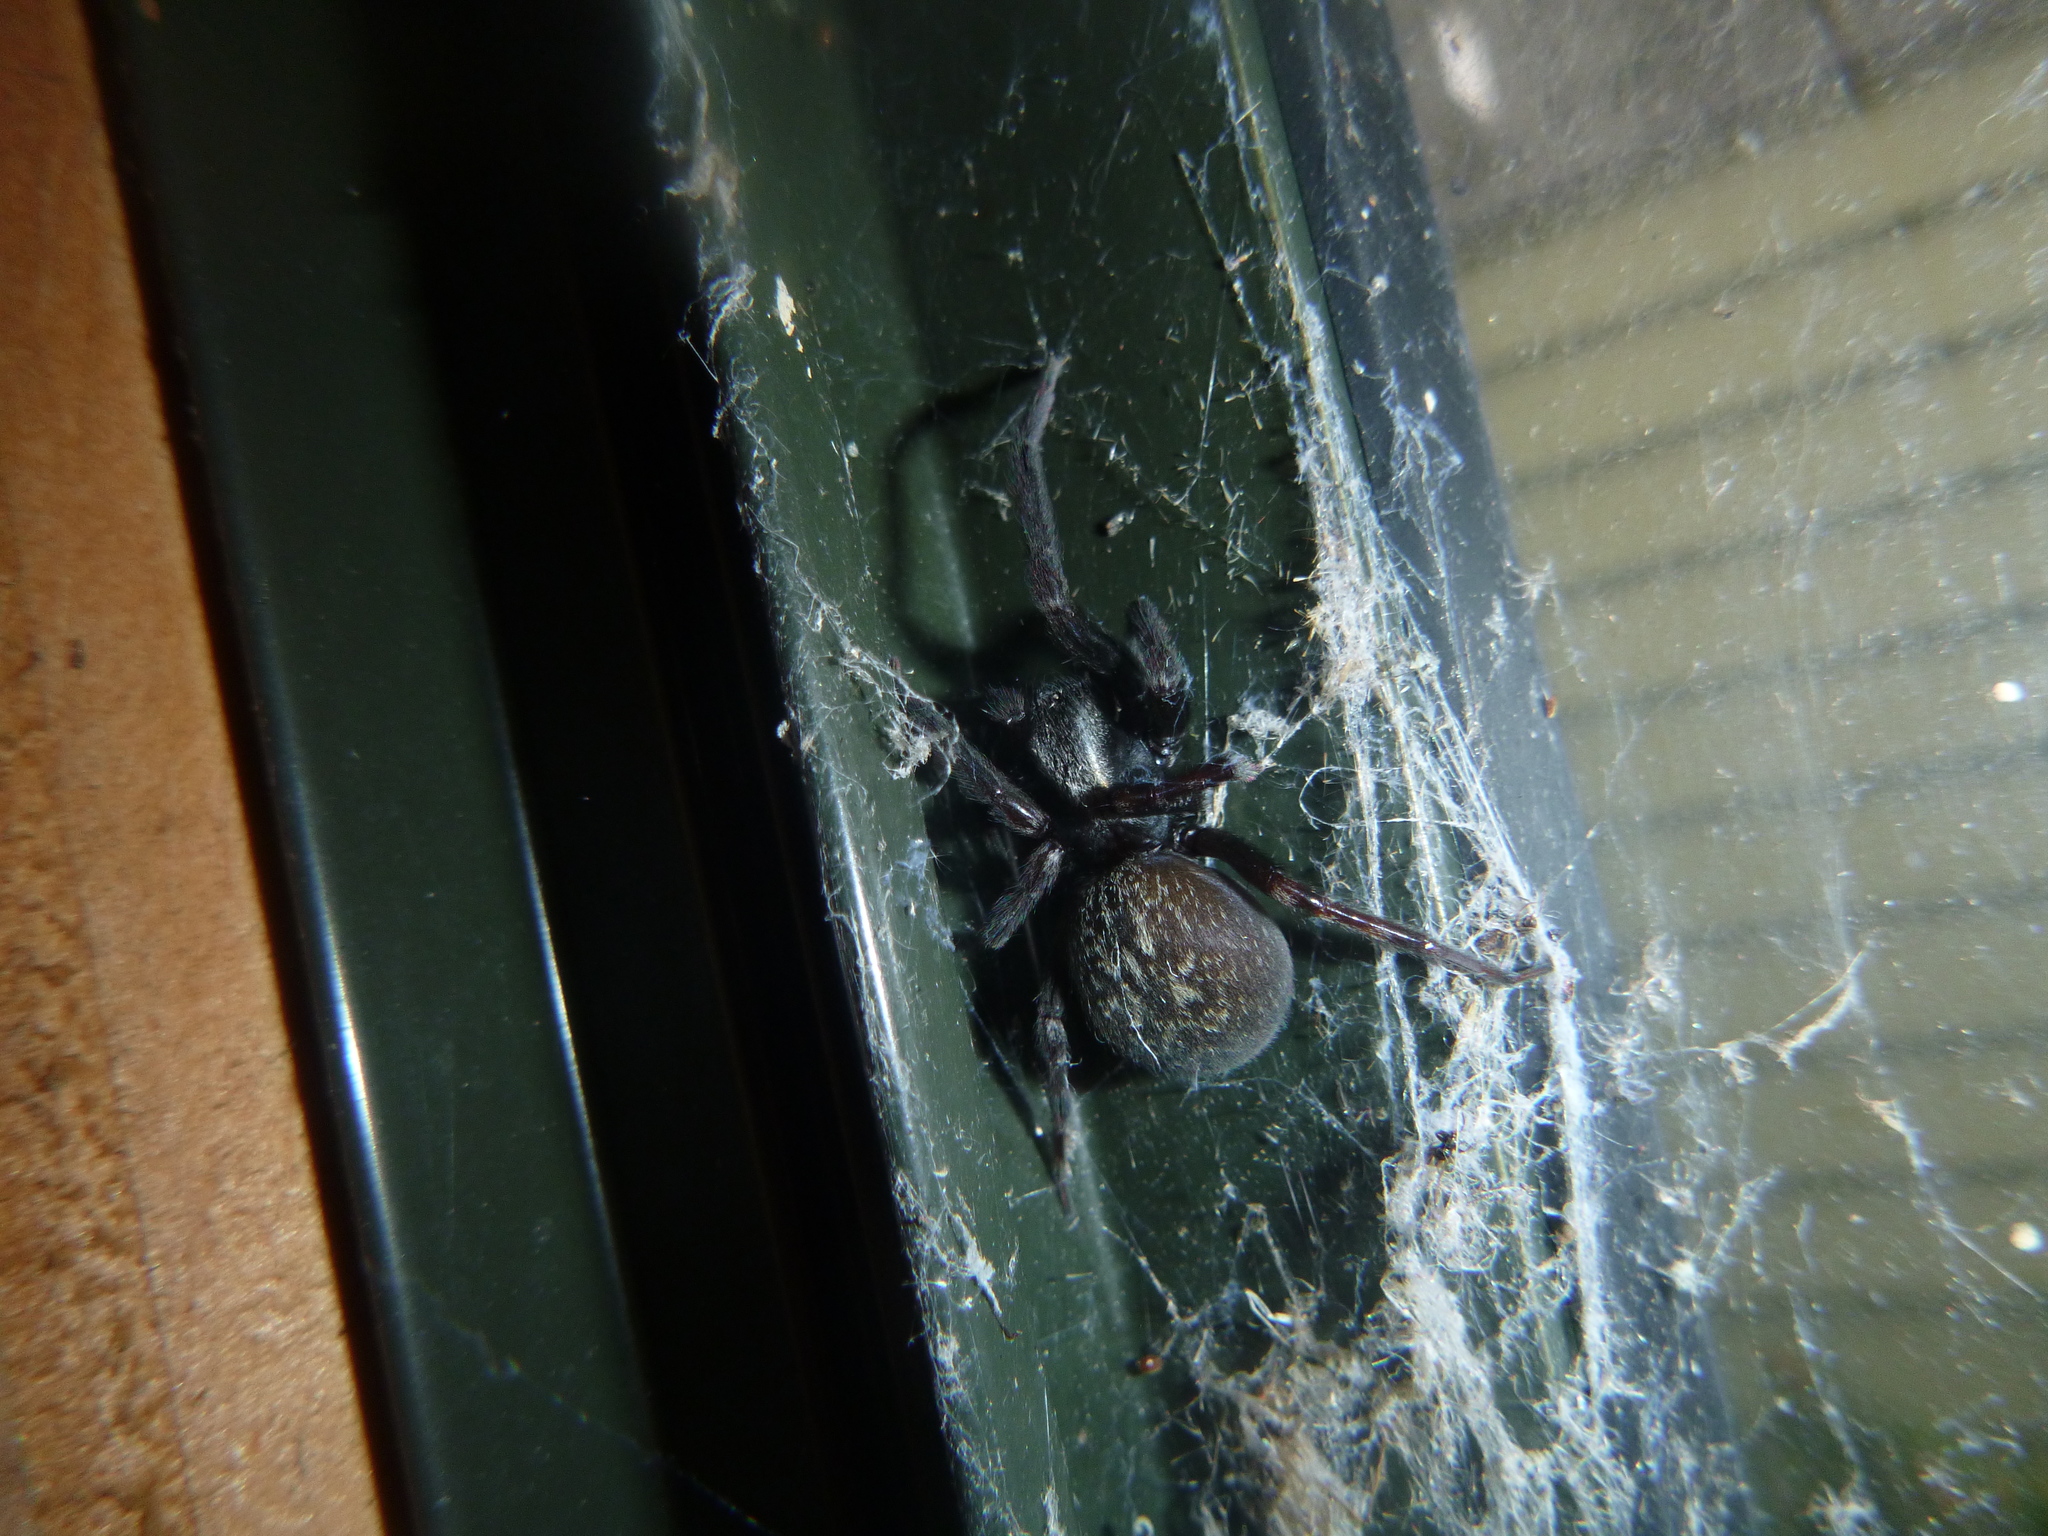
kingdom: Animalia
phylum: Arthropoda
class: Arachnida
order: Araneae
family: Desidae
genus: Badumna
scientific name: Badumna longinqua
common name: Gray house spider
